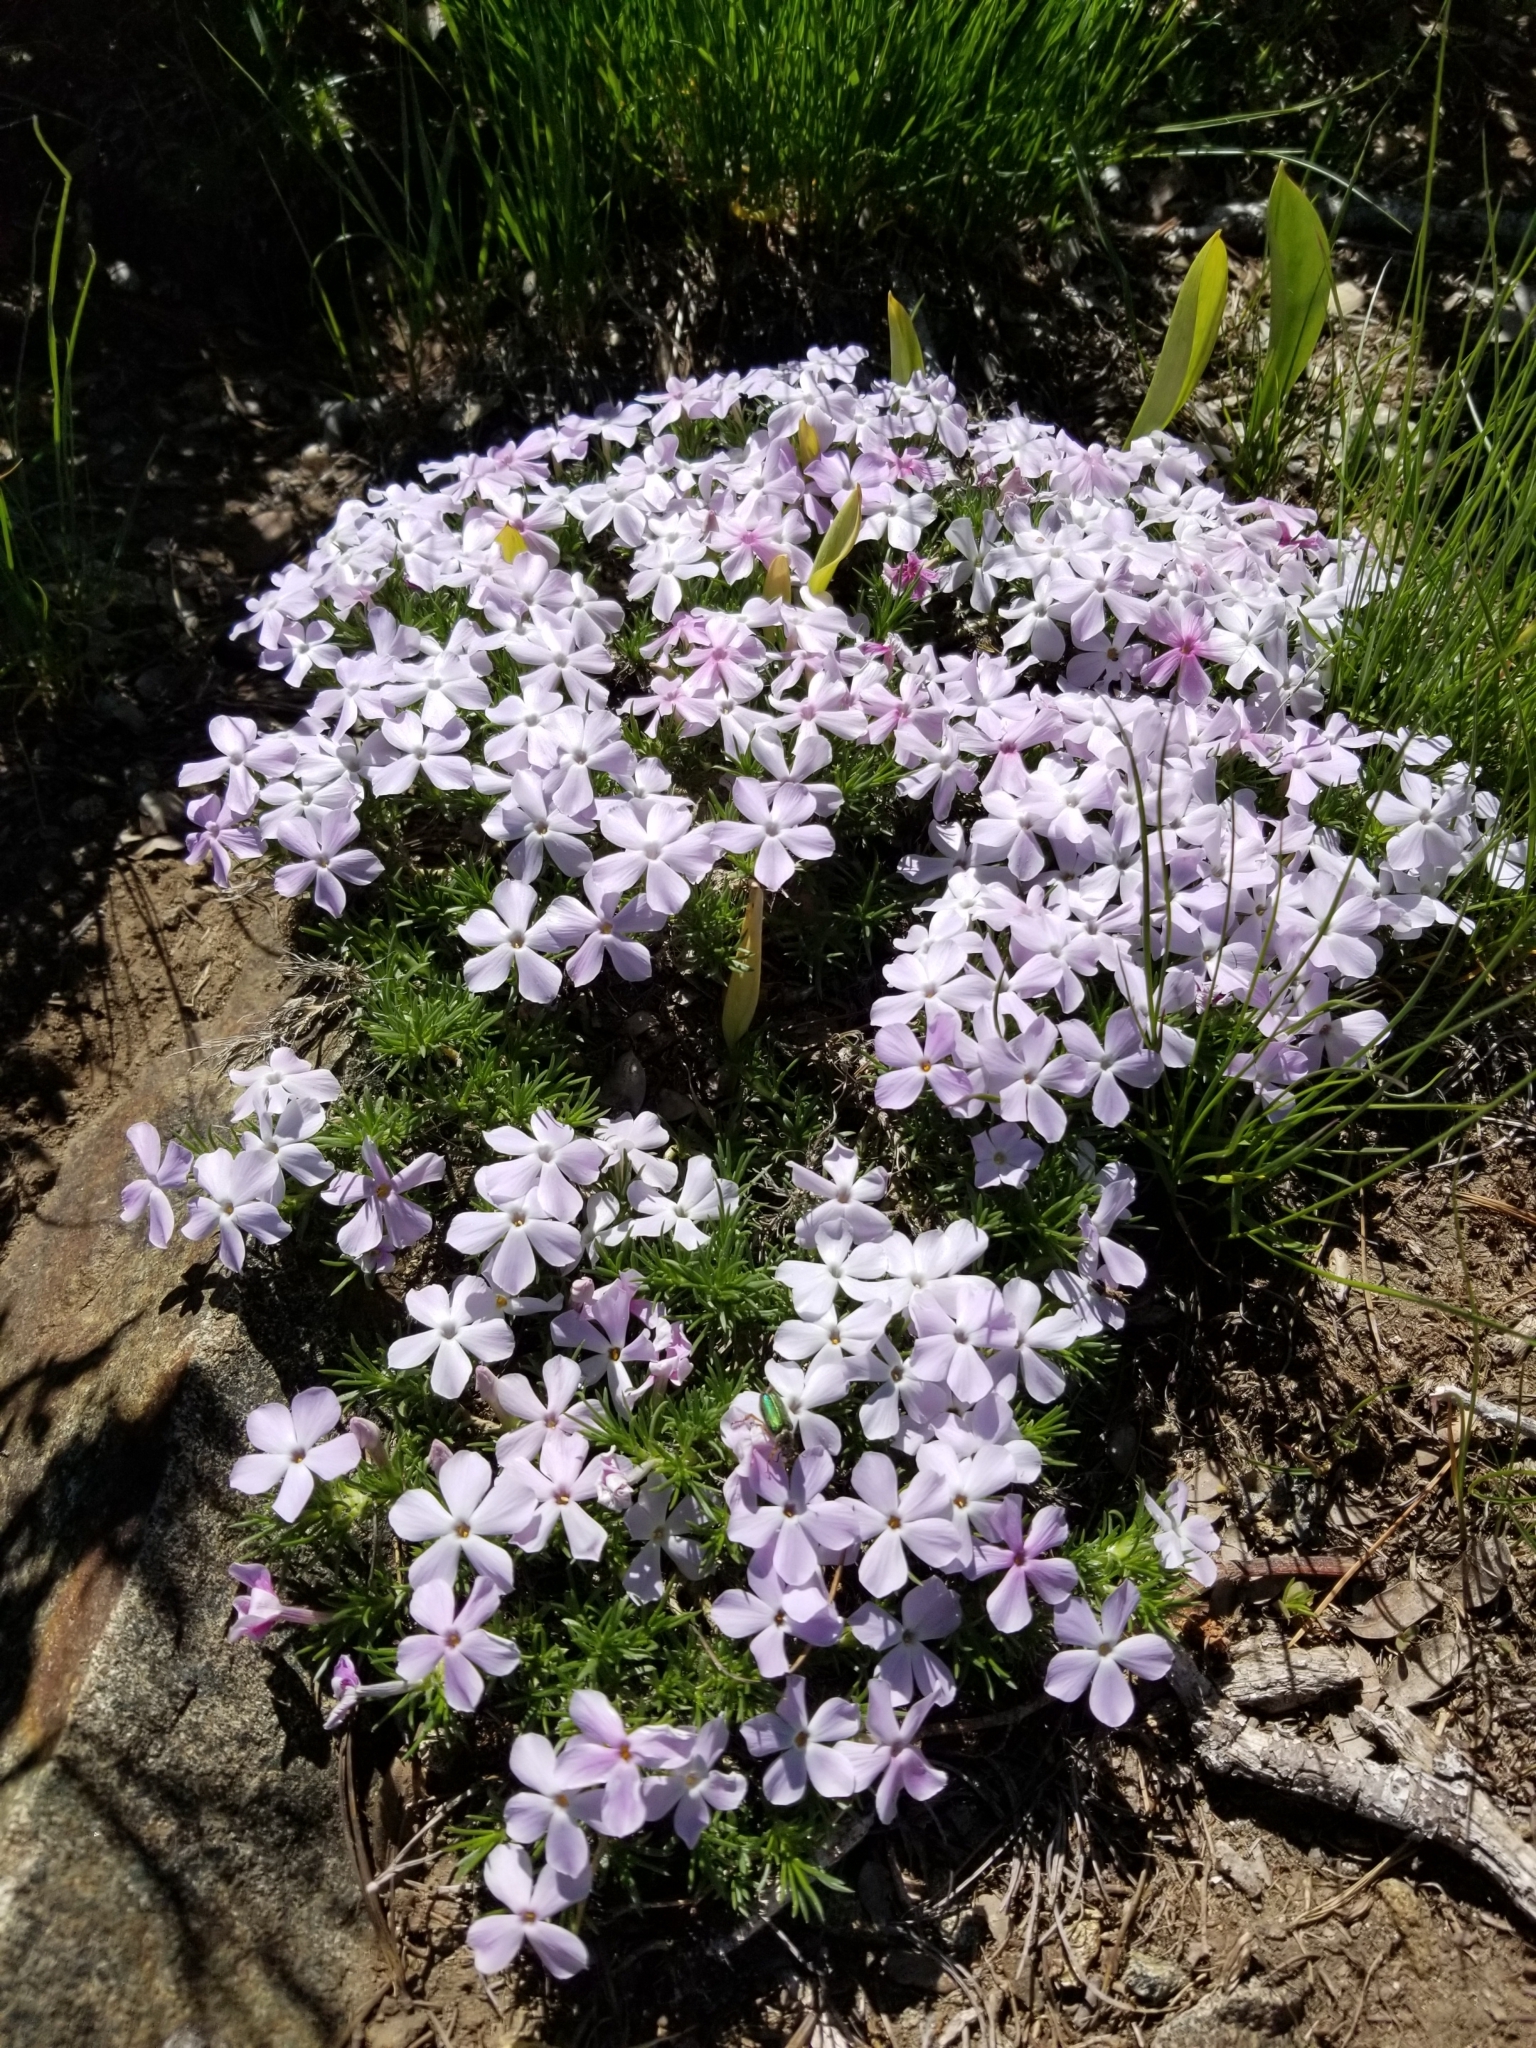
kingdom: Plantae
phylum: Tracheophyta
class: Magnoliopsida
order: Ericales
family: Polemoniaceae
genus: Phlox
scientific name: Phlox diffusa
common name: Mat phlox
